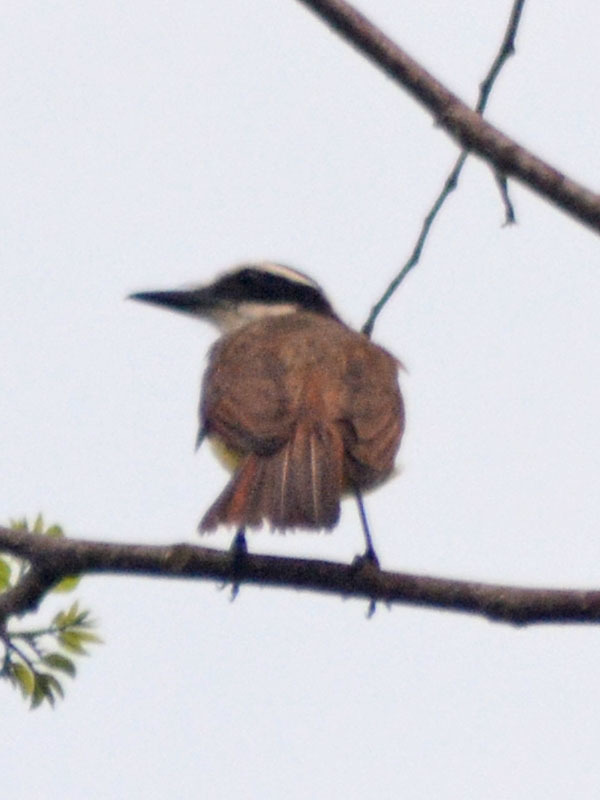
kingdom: Animalia
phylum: Chordata
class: Aves
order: Passeriformes
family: Tyrannidae
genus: Pitangus
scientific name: Pitangus sulphuratus
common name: Great kiskadee
